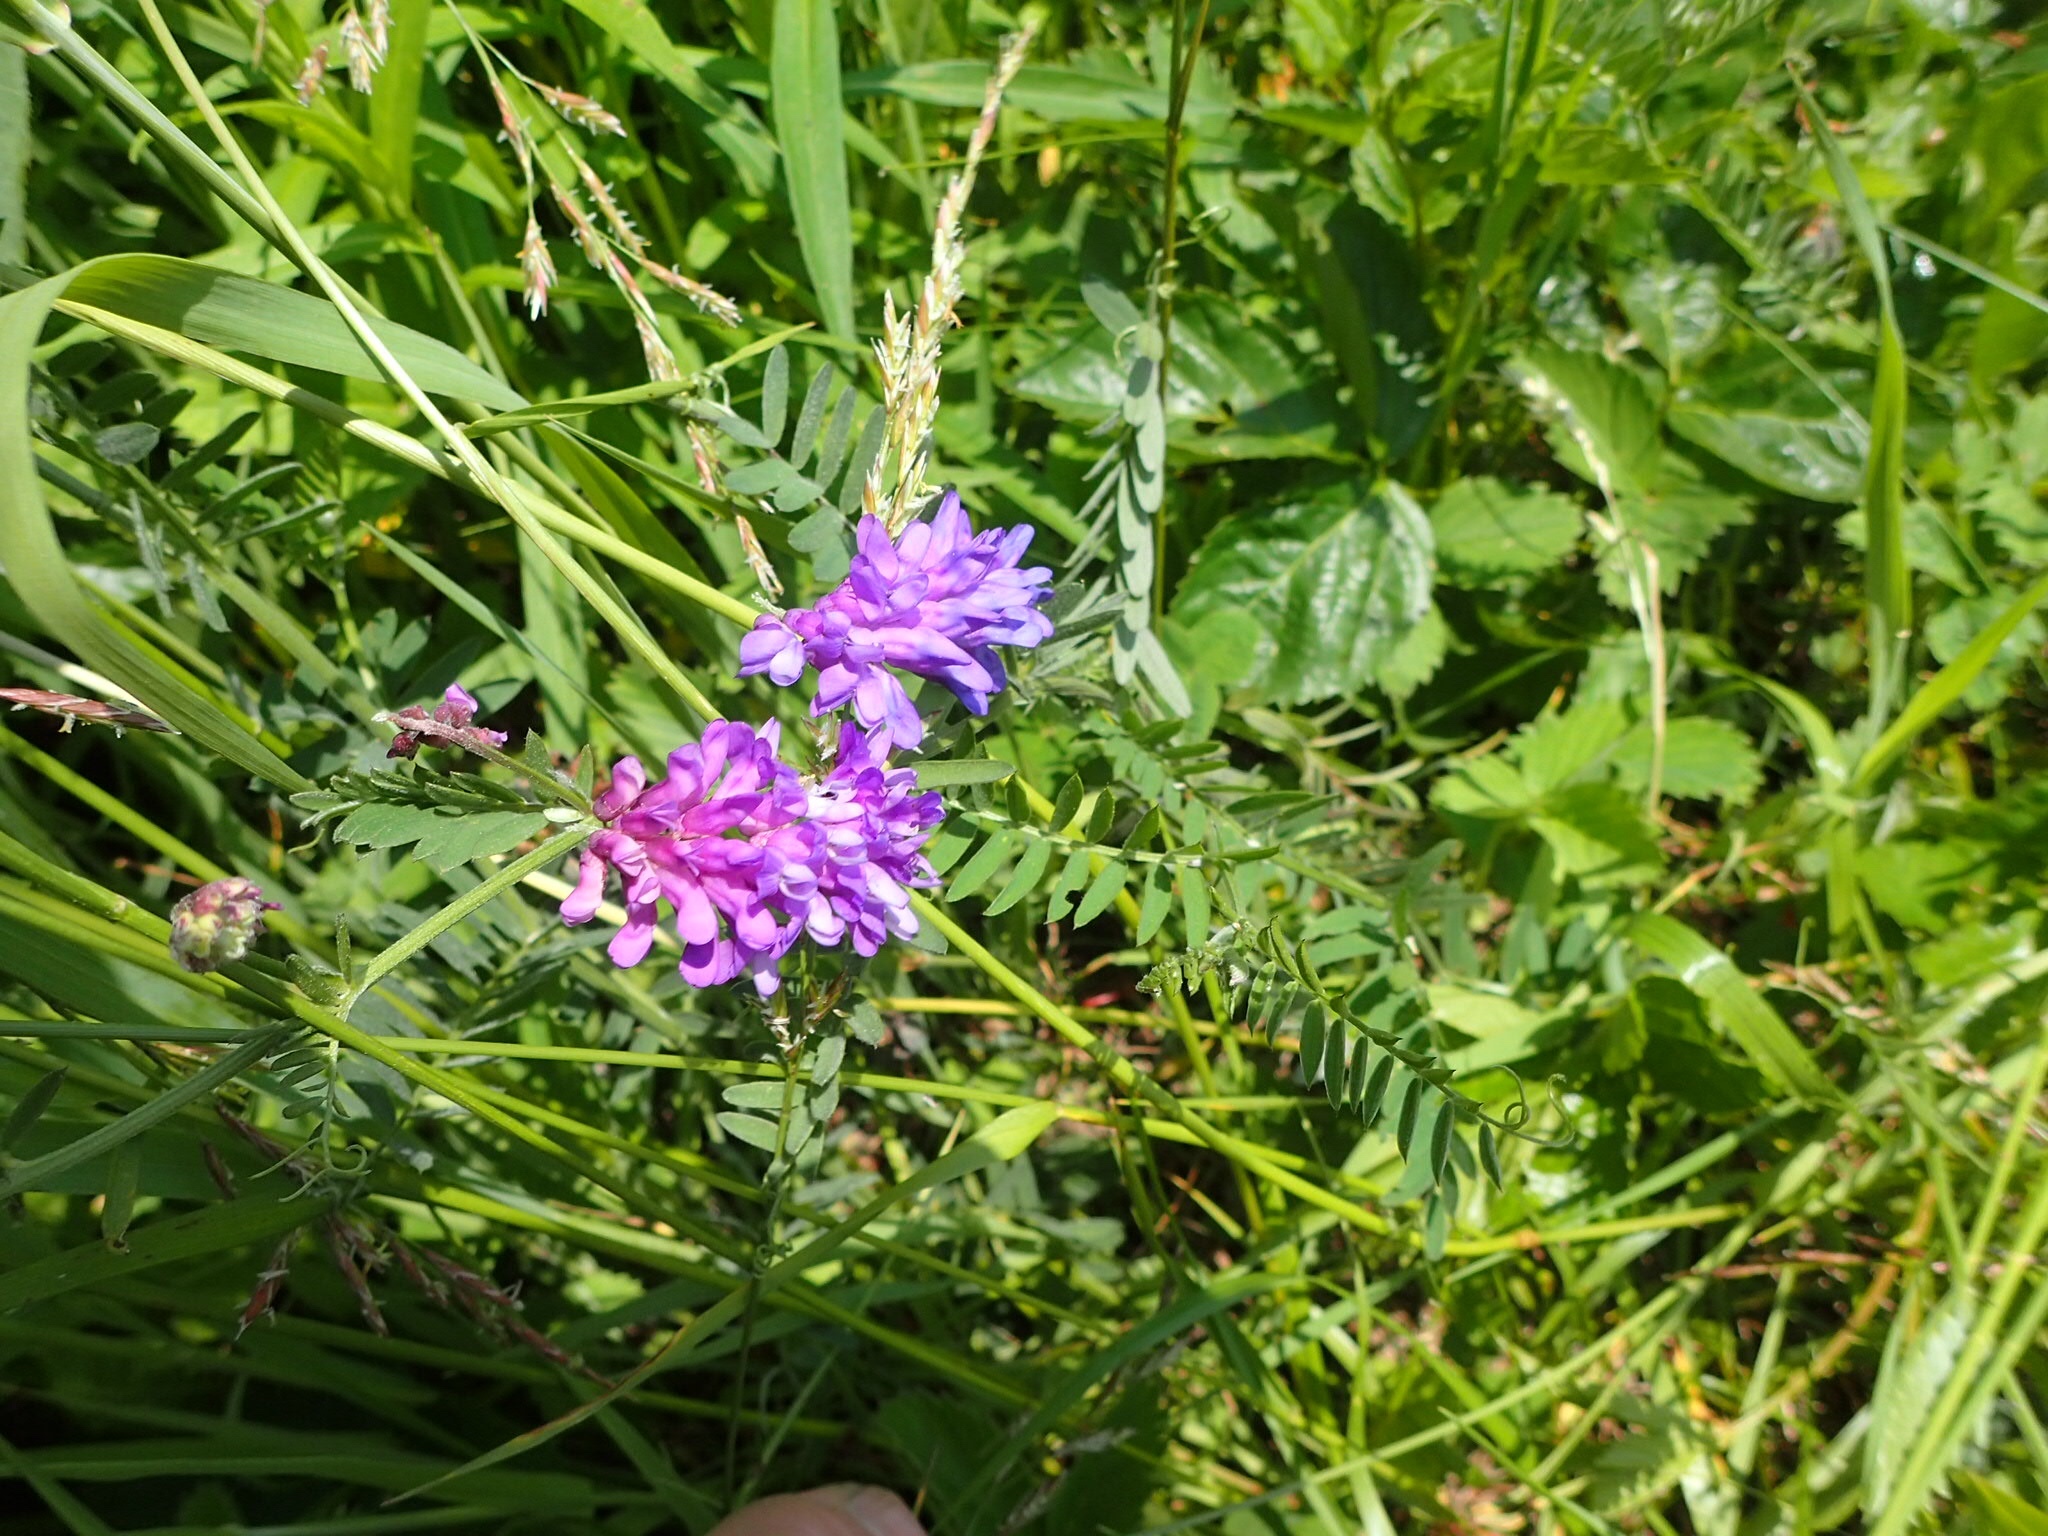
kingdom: Plantae
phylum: Tracheophyta
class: Magnoliopsida
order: Fabales
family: Fabaceae
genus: Vicia
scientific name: Vicia cracca
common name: Bird vetch
